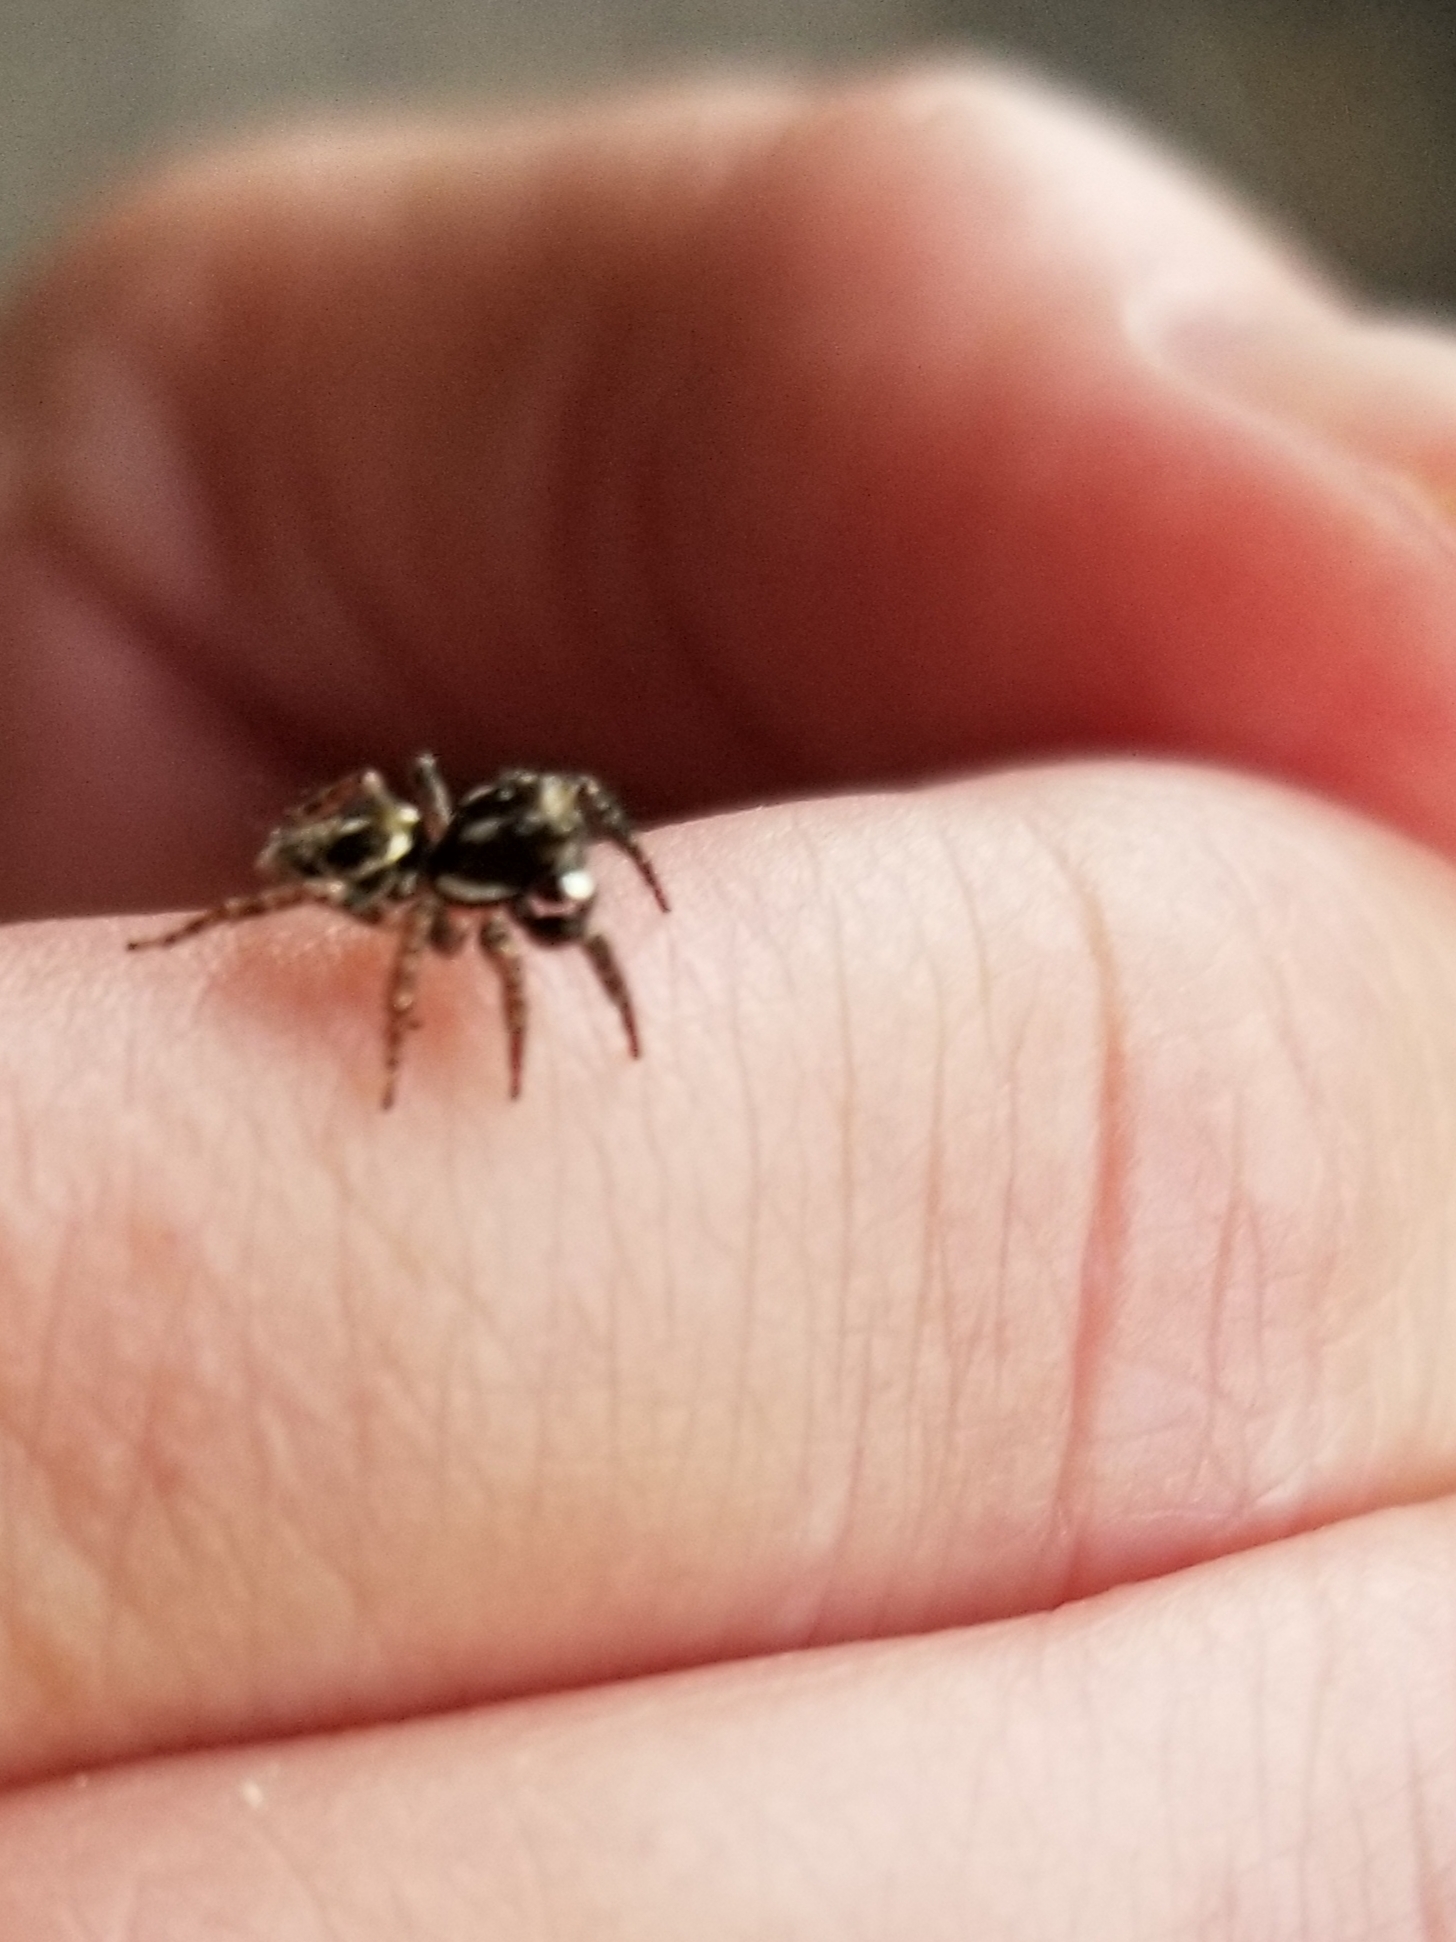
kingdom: Animalia
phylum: Arthropoda
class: Arachnida
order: Araneae
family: Salticidae
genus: Anasaitis
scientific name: Anasaitis canosa
